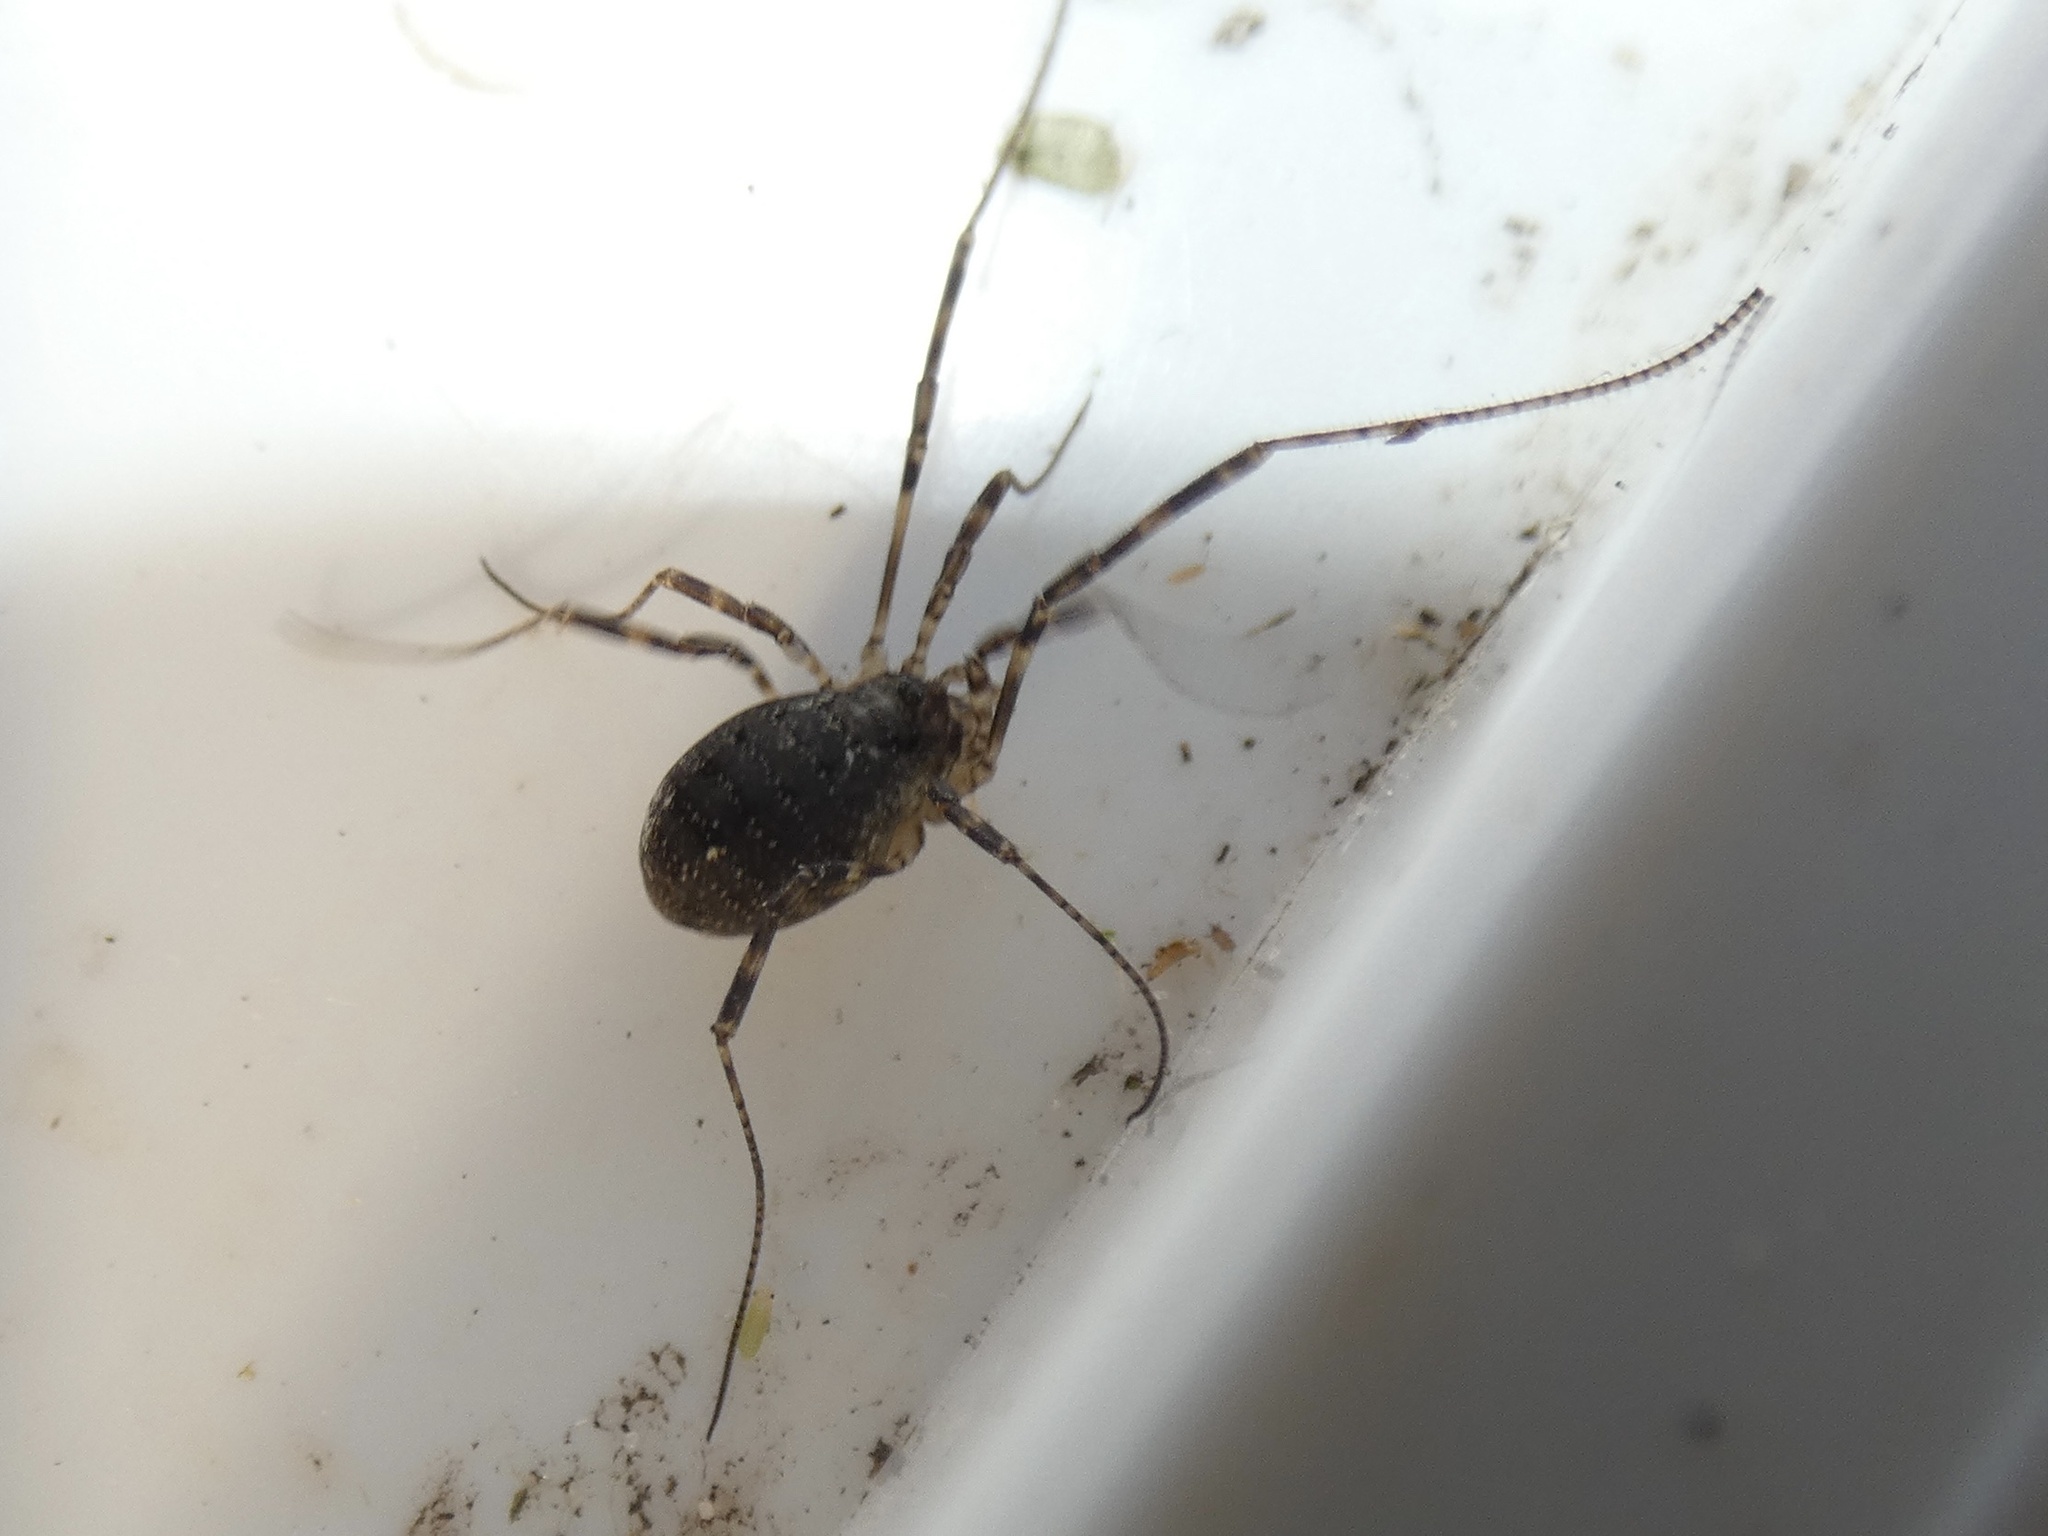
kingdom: Animalia
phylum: Arthropoda
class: Arachnida
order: Opiliones
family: Phalangiidae
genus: Oligolophus
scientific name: Oligolophus hansenii
